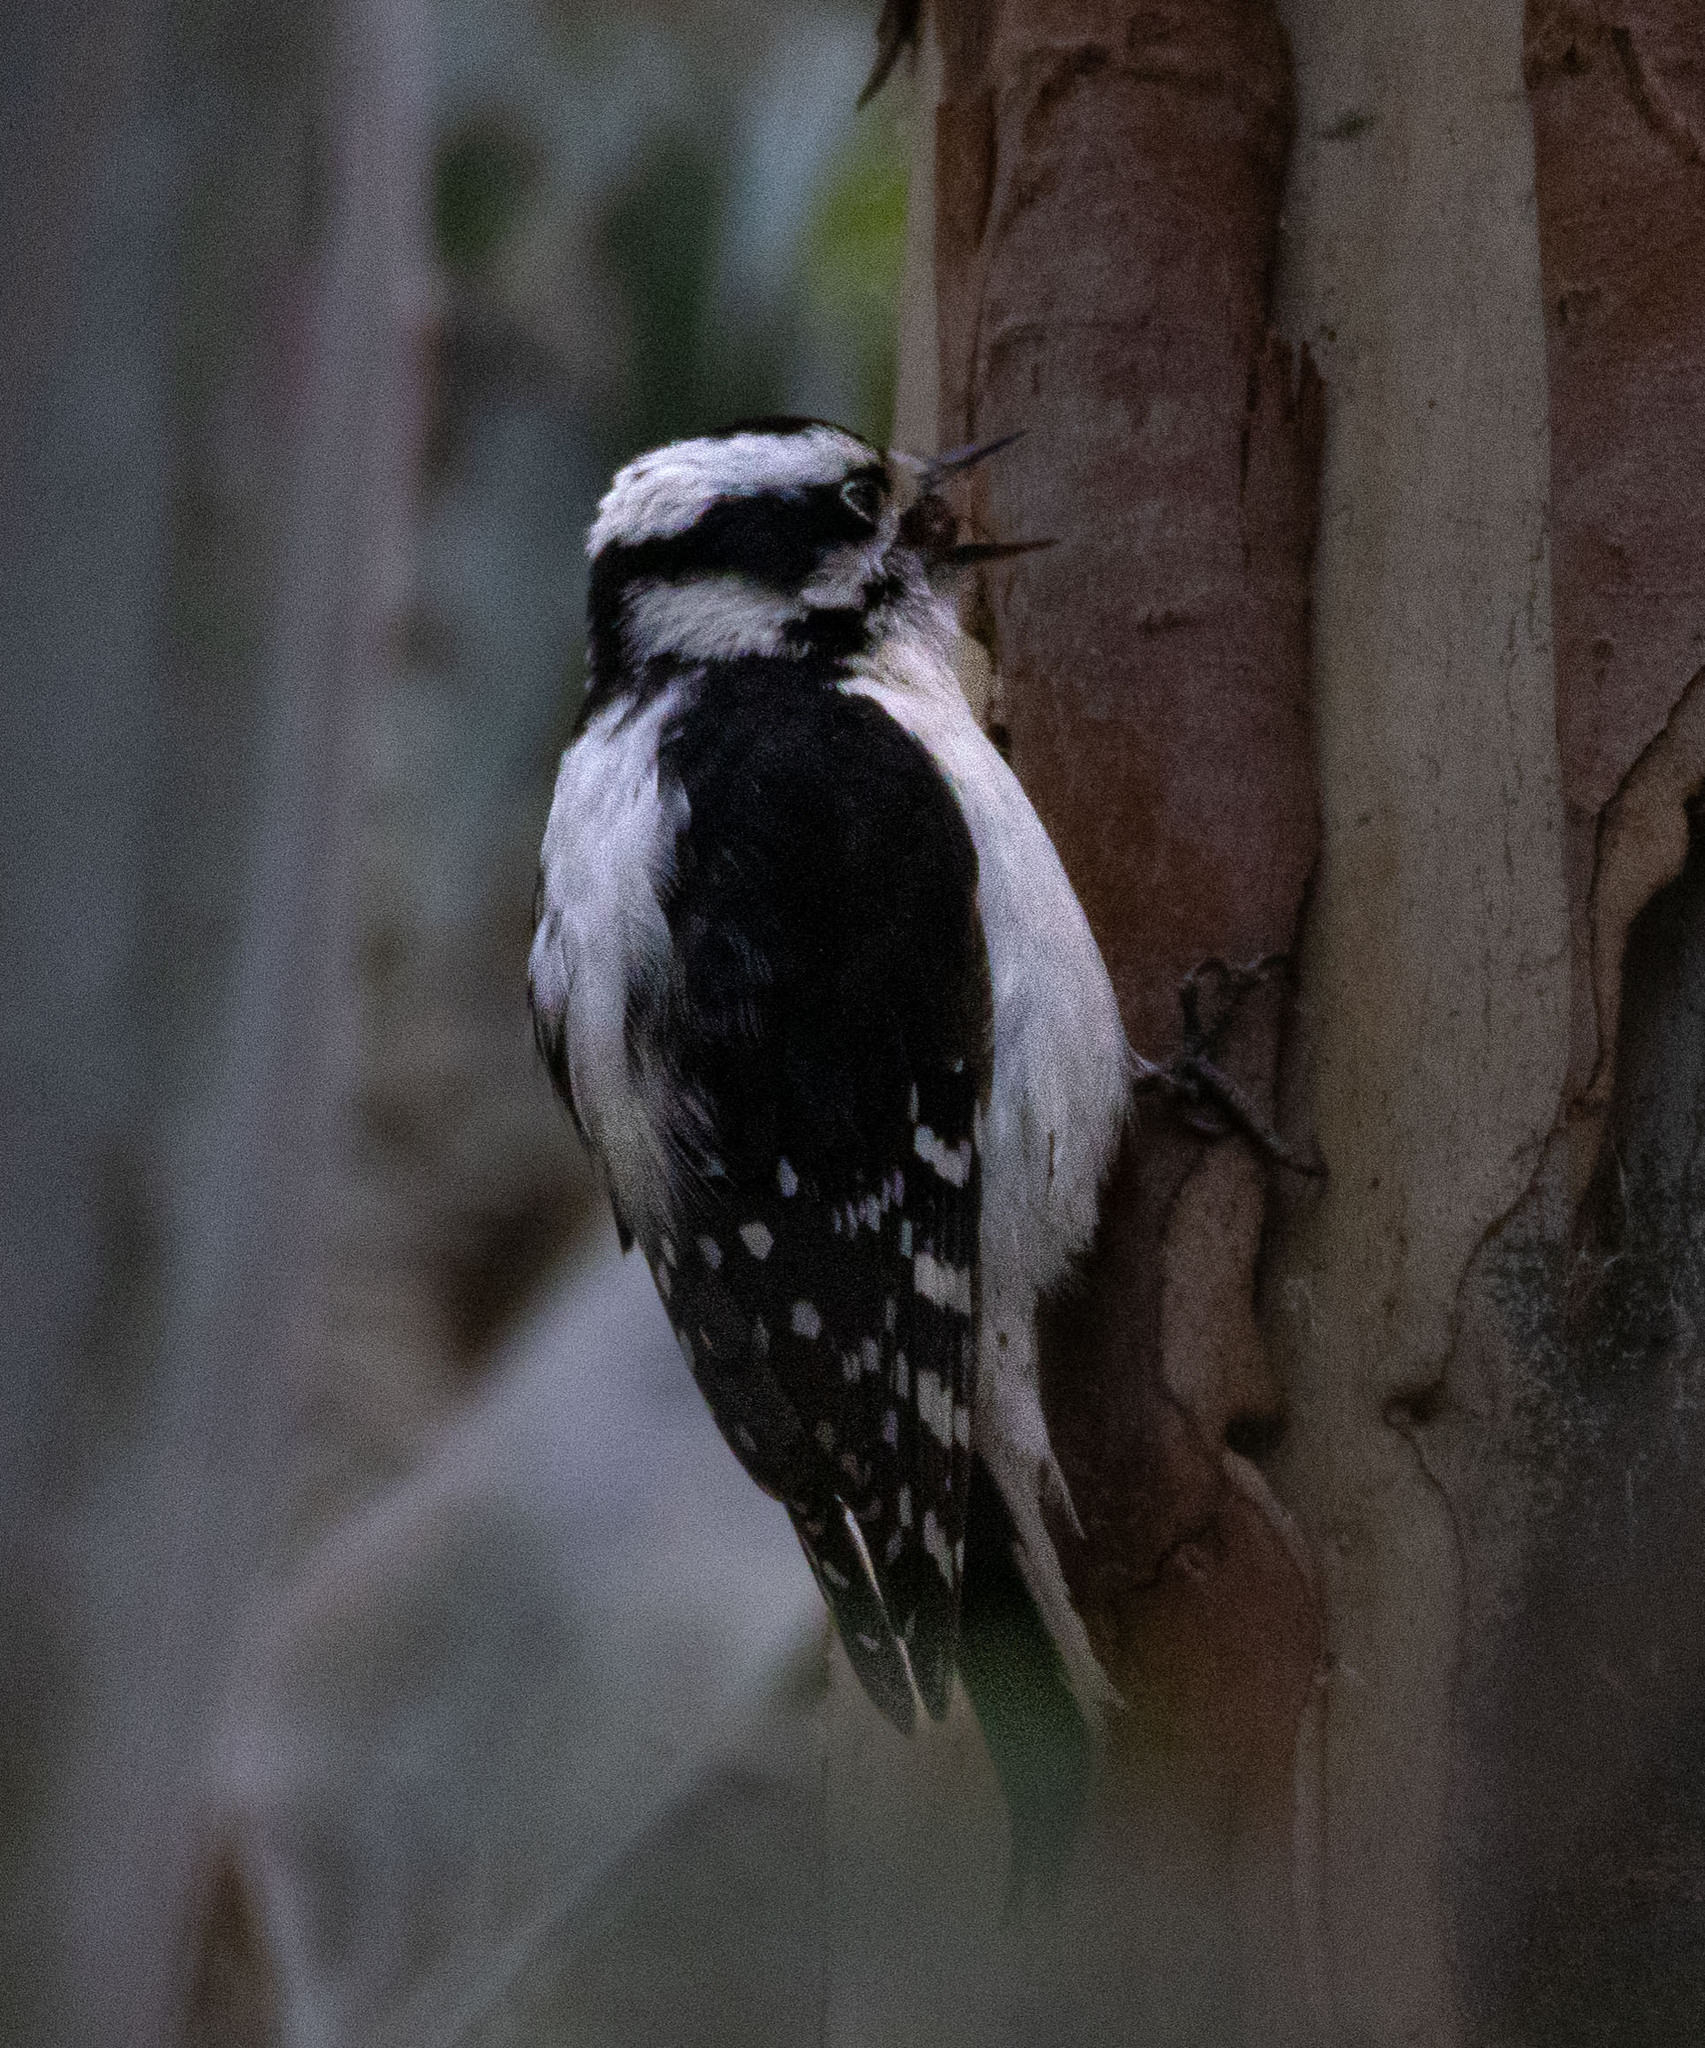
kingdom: Animalia
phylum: Chordata
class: Aves
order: Piciformes
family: Picidae
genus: Dryobates
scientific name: Dryobates pubescens
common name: Downy woodpecker
